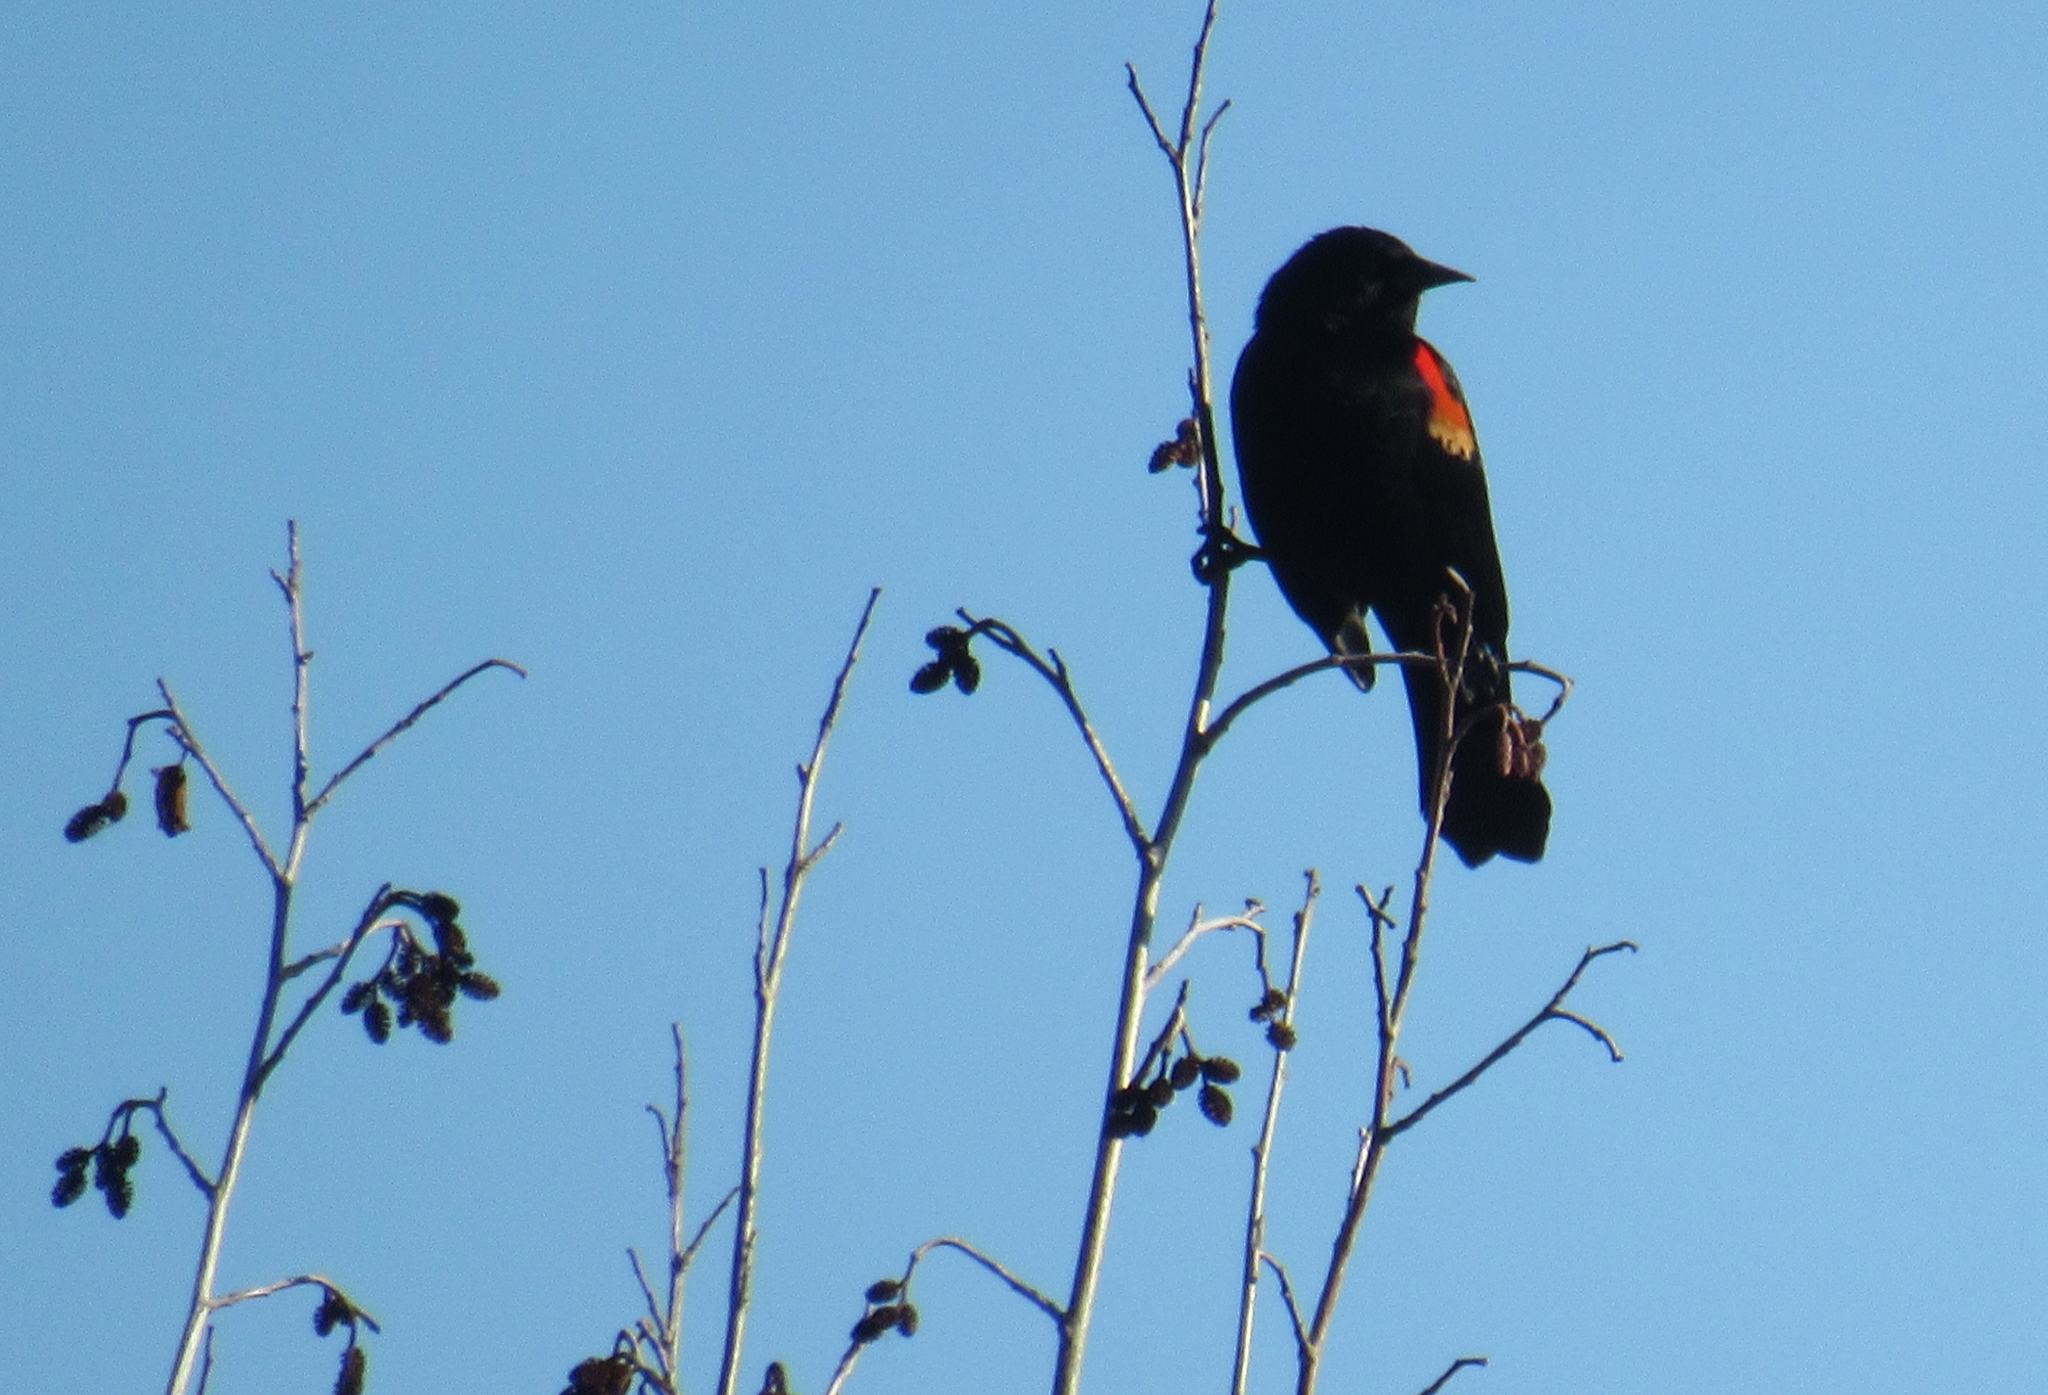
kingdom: Animalia
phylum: Chordata
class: Aves
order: Passeriformes
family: Icteridae
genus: Agelaius
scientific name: Agelaius phoeniceus
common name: Red-winged blackbird
